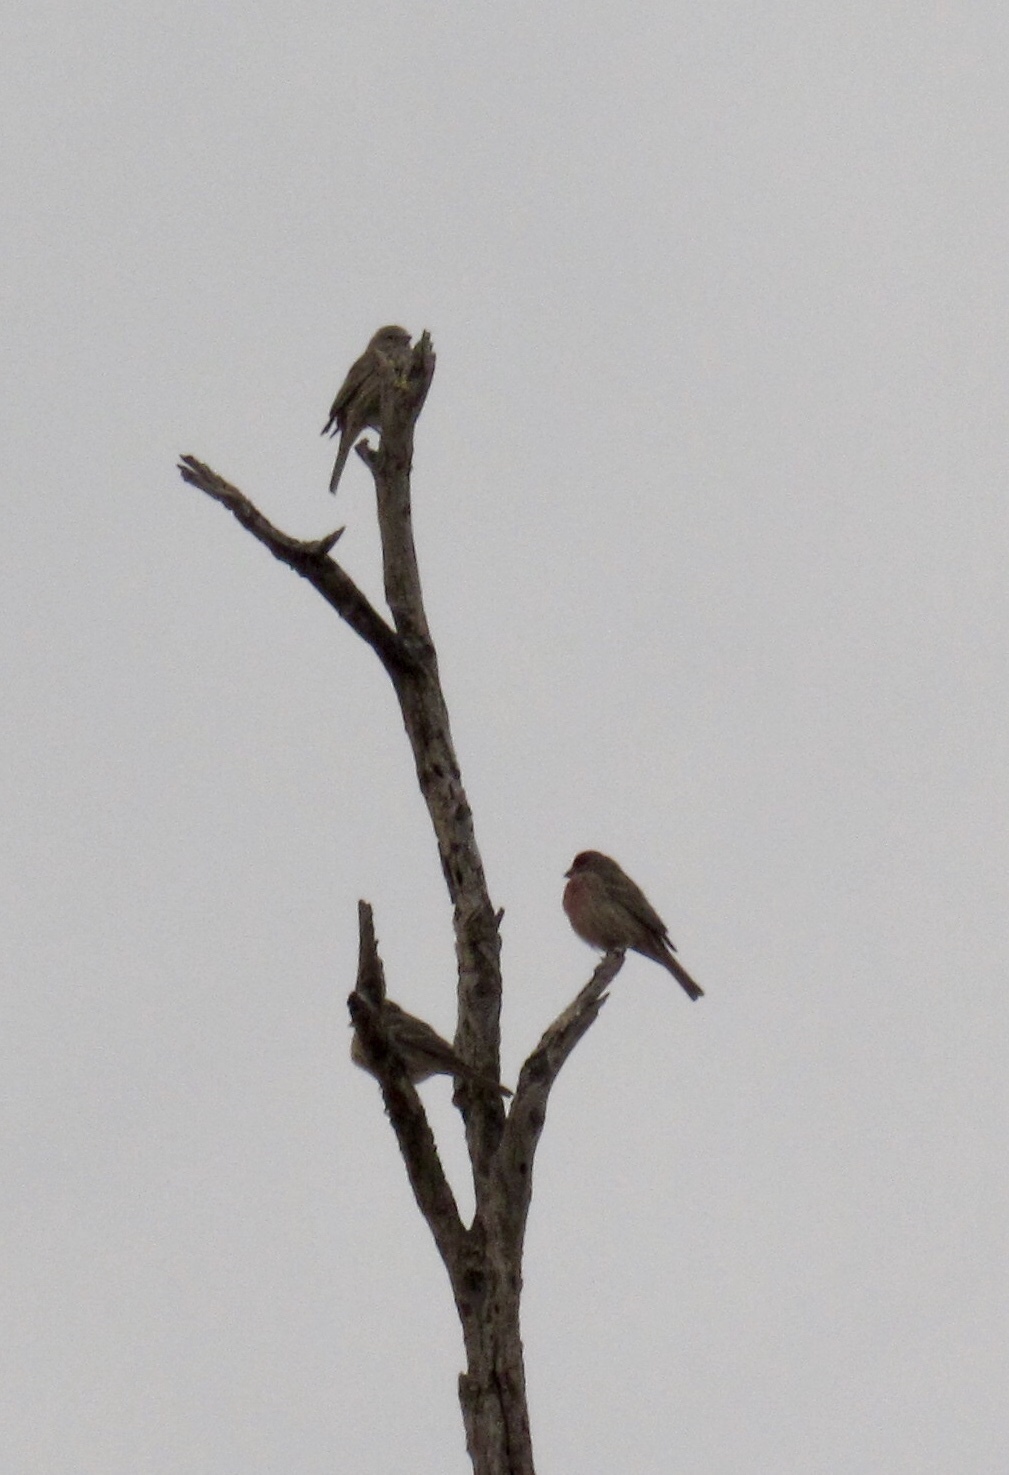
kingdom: Animalia
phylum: Chordata
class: Aves
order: Passeriformes
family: Fringillidae
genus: Haemorhous
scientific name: Haemorhous mexicanus
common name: House finch
